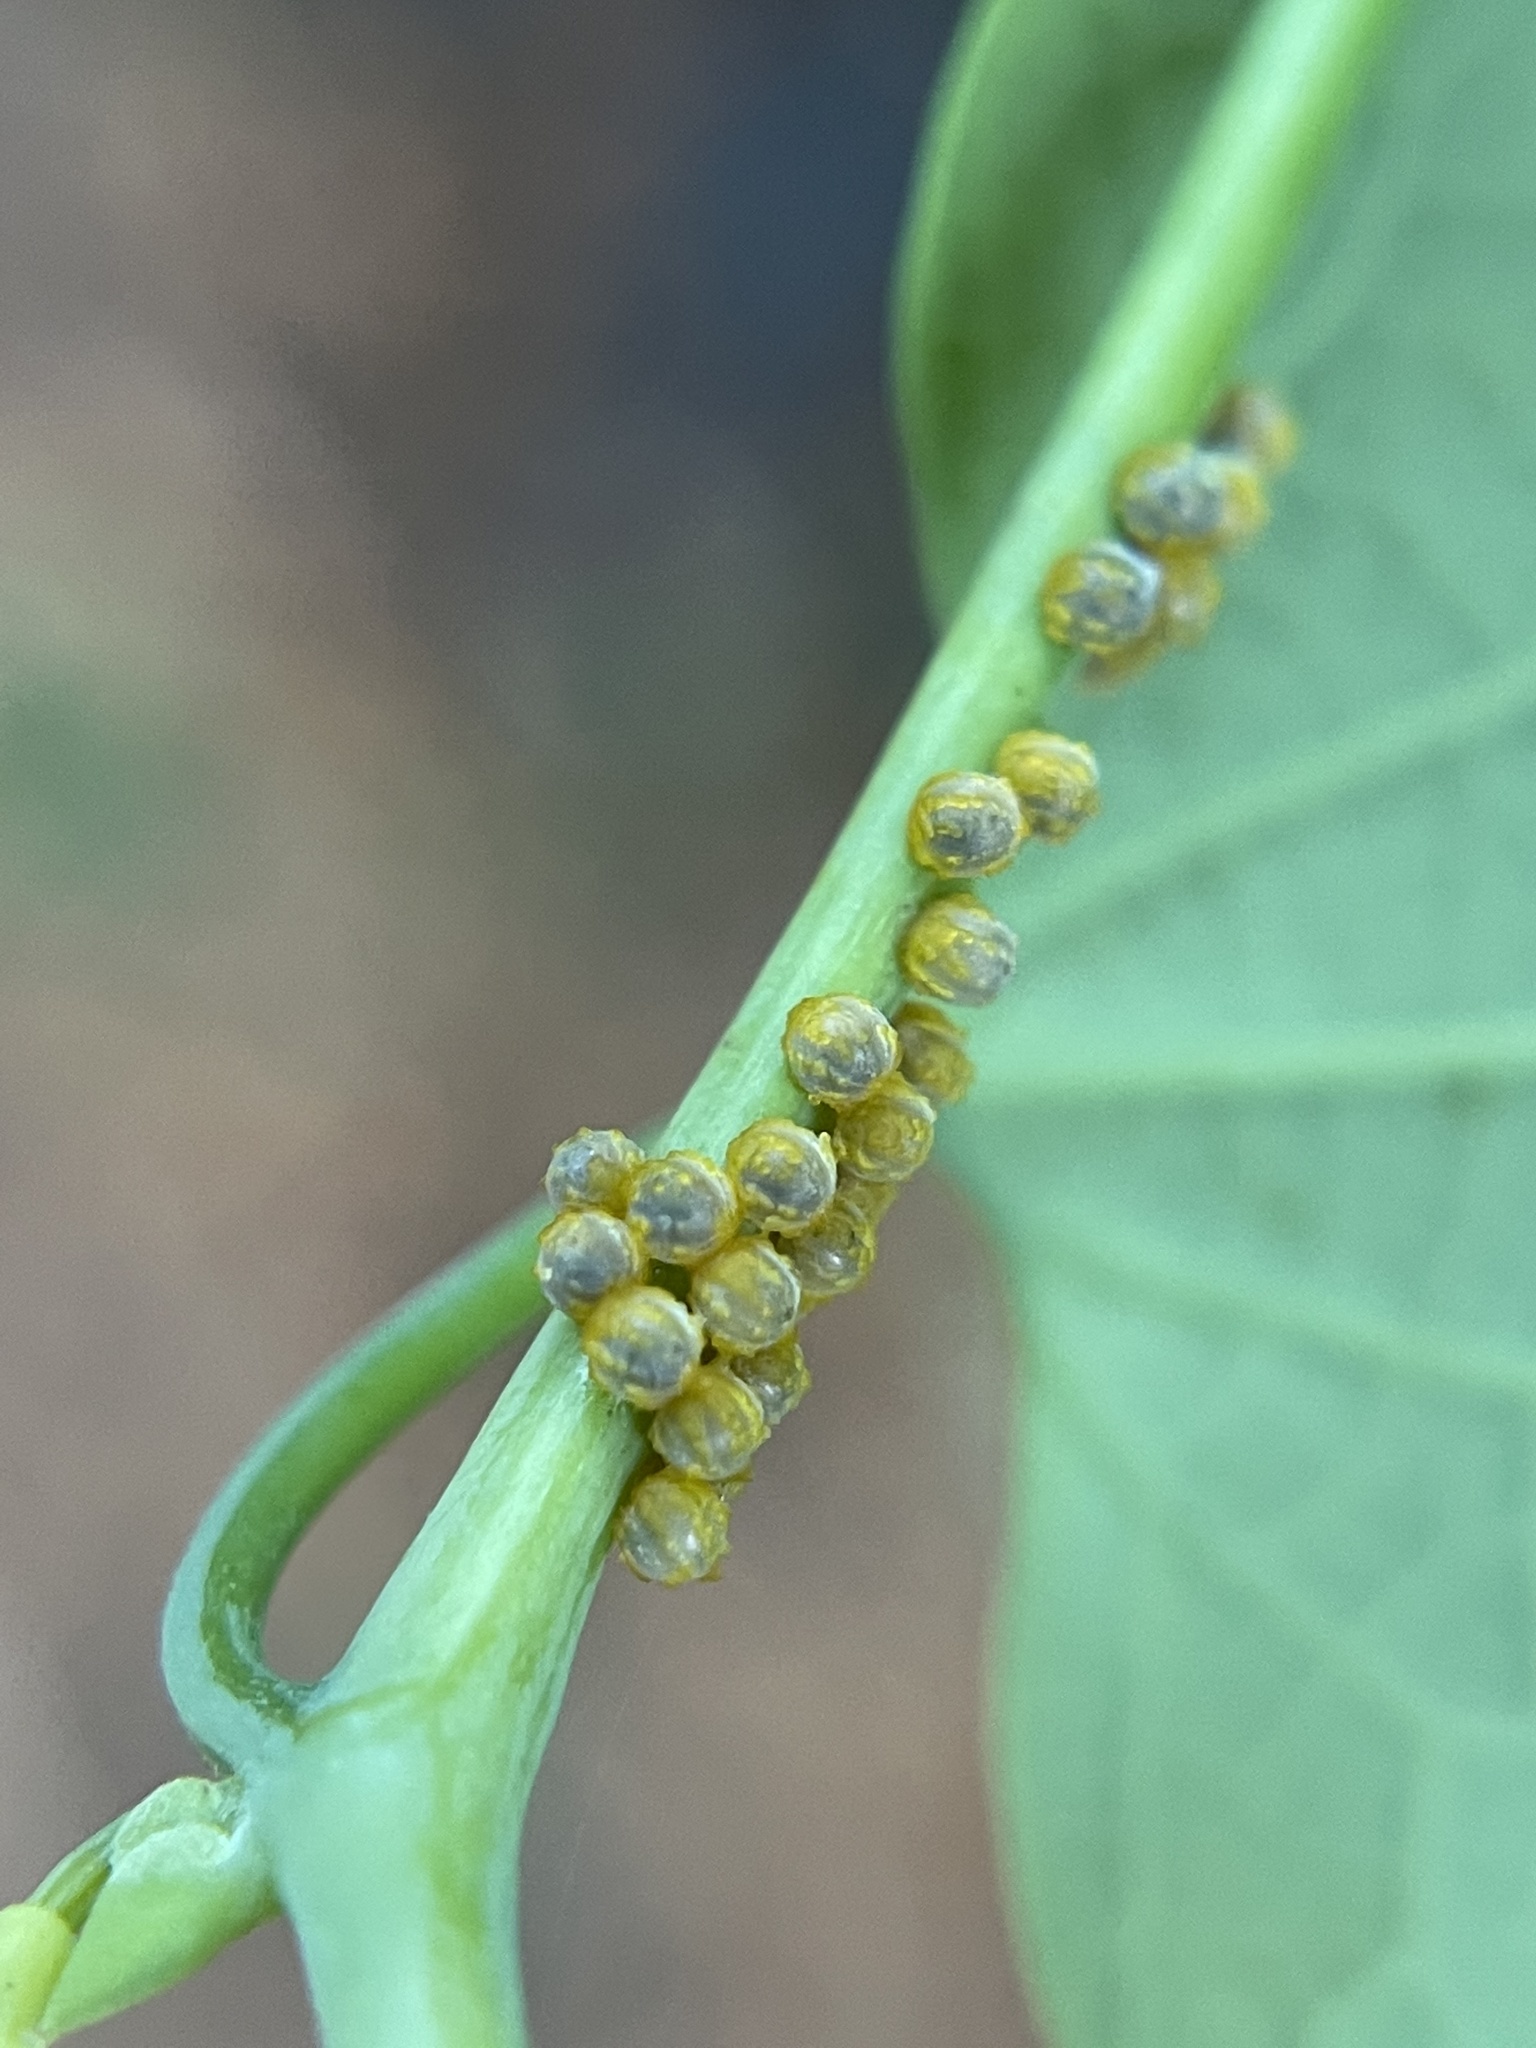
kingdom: Animalia
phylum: Arthropoda
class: Insecta
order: Lepidoptera
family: Papilionidae
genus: Battus
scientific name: Battus polydamas
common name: Polydamas swallowtail
